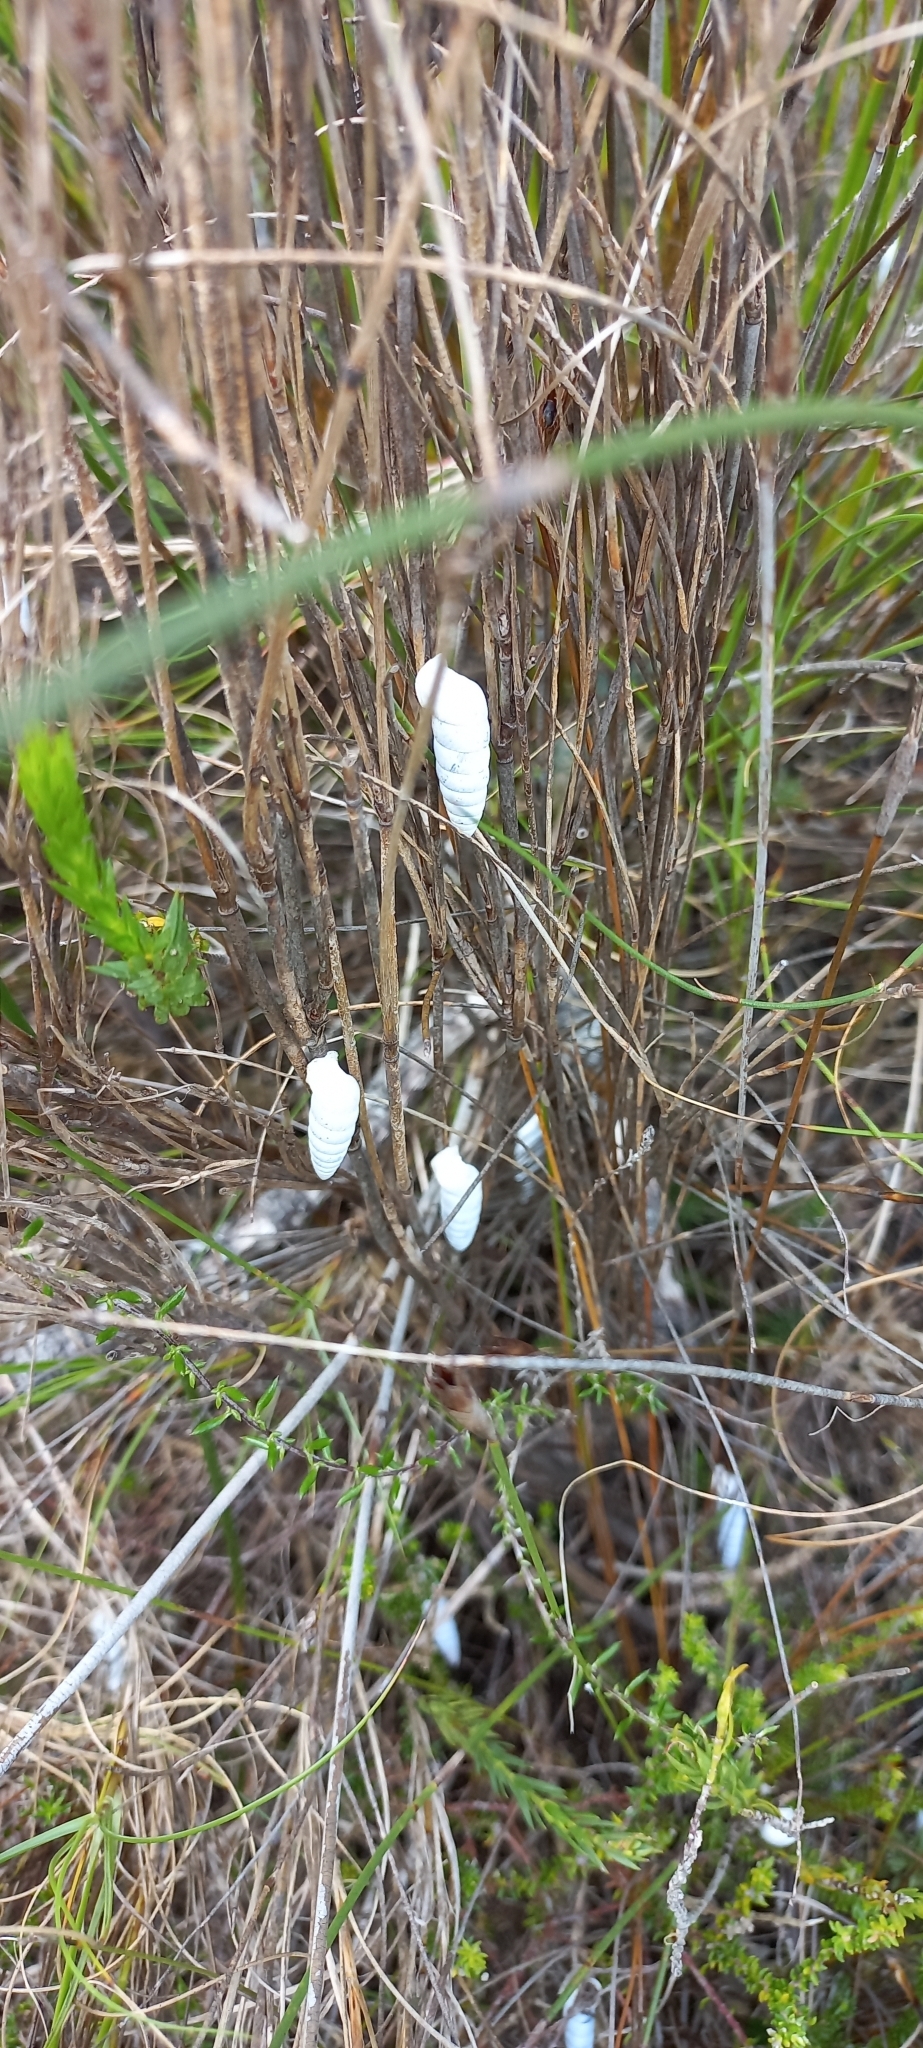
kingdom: Animalia
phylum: Mollusca
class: Gastropoda
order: Stylommatophora
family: Fauxulidae
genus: Fauxulus
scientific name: Fauxulus capensis
